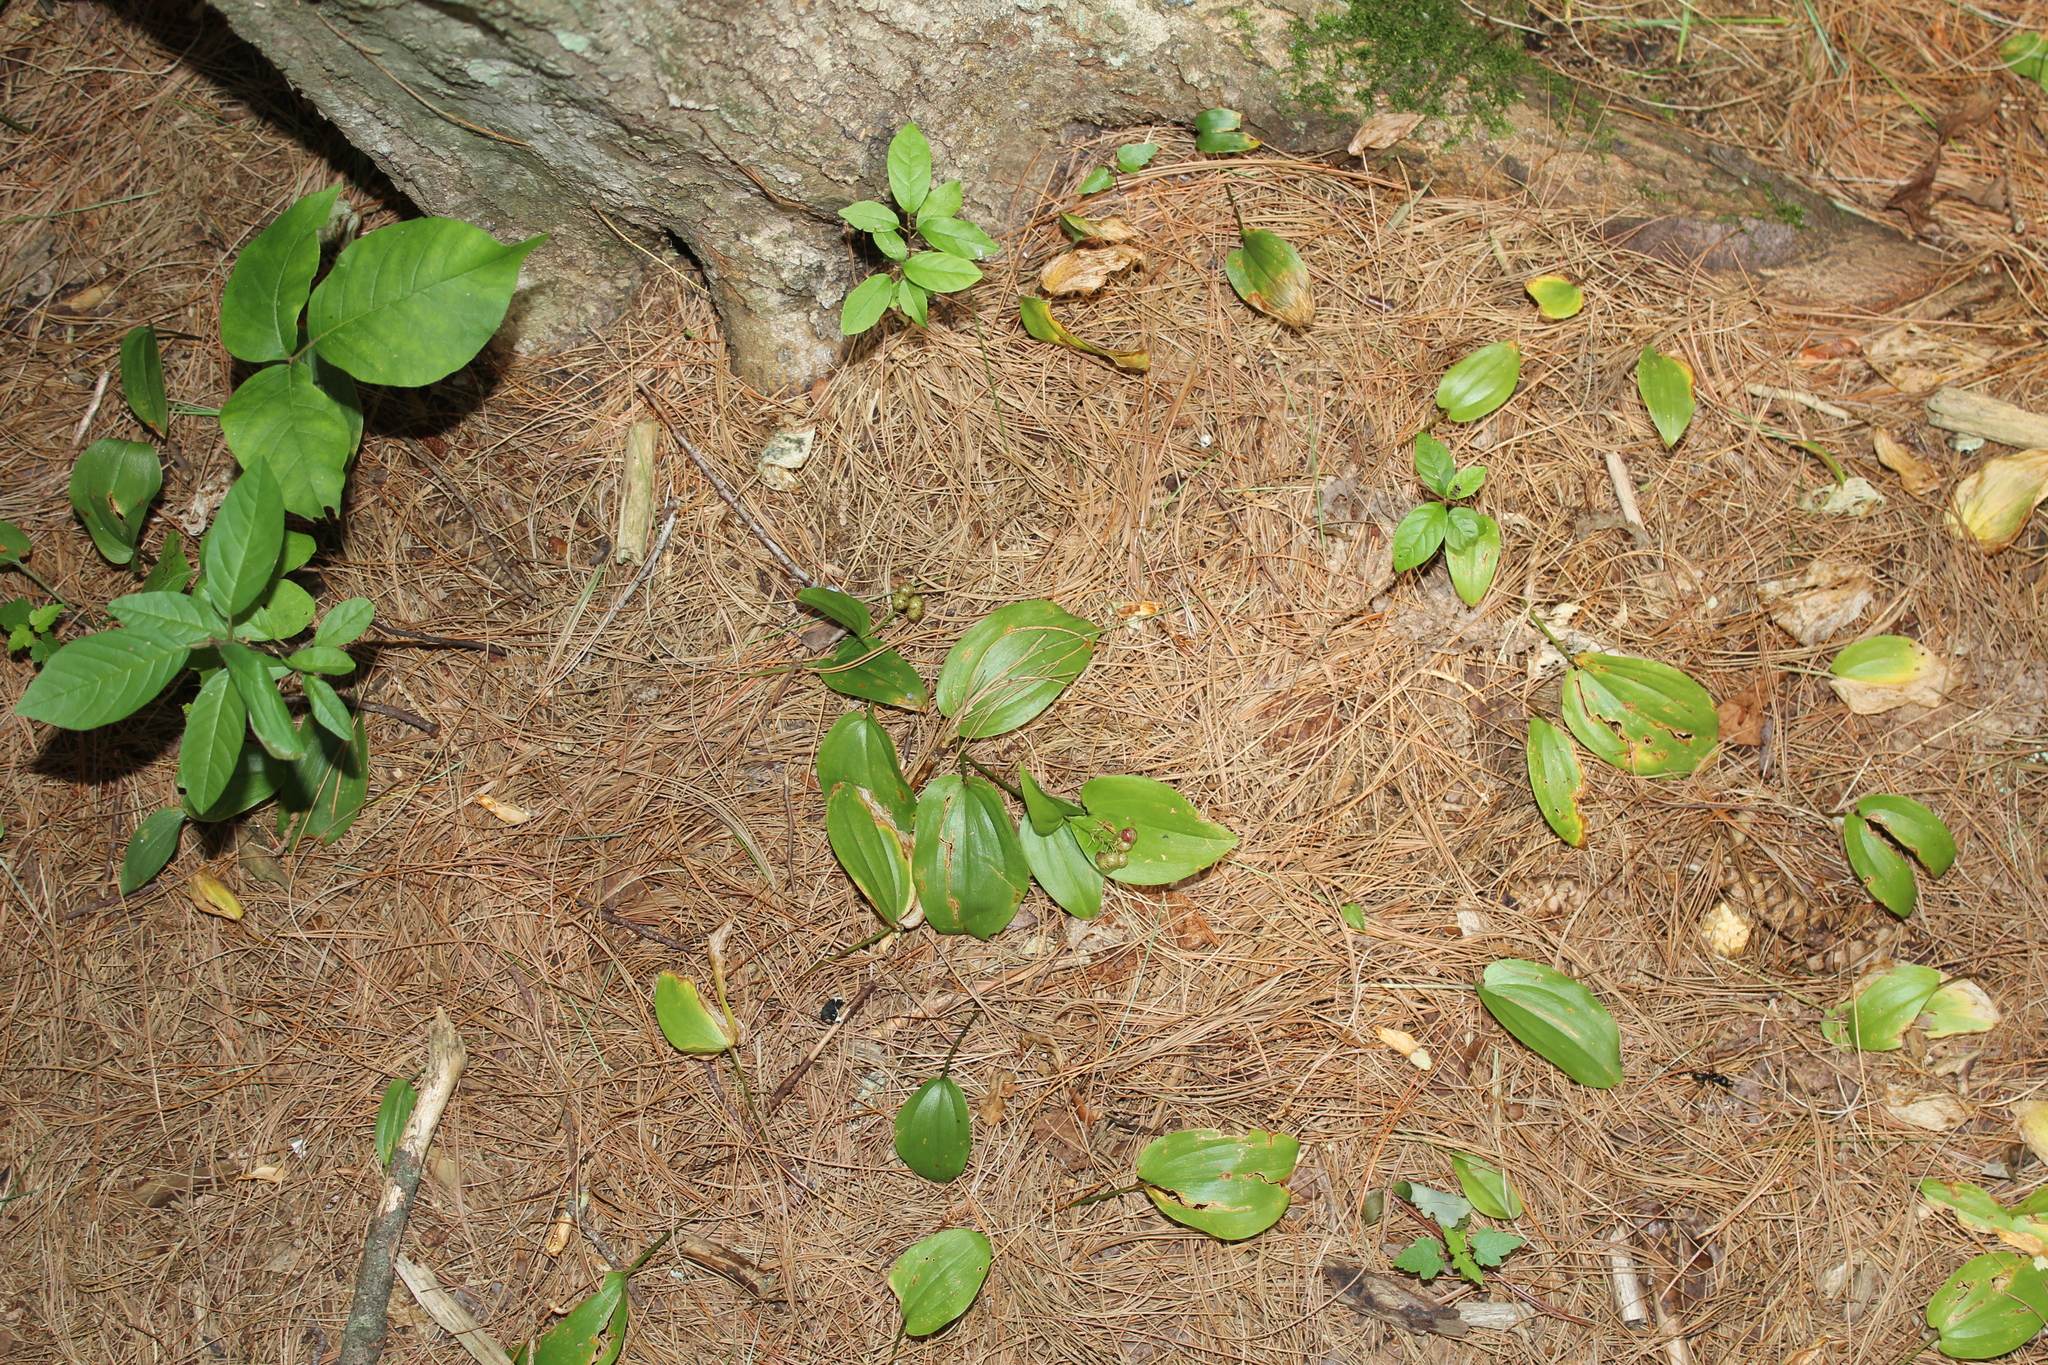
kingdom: Plantae
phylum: Tracheophyta
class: Liliopsida
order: Asparagales
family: Asparagaceae
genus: Maianthemum
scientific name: Maianthemum canadense
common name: False lily-of-the-valley
